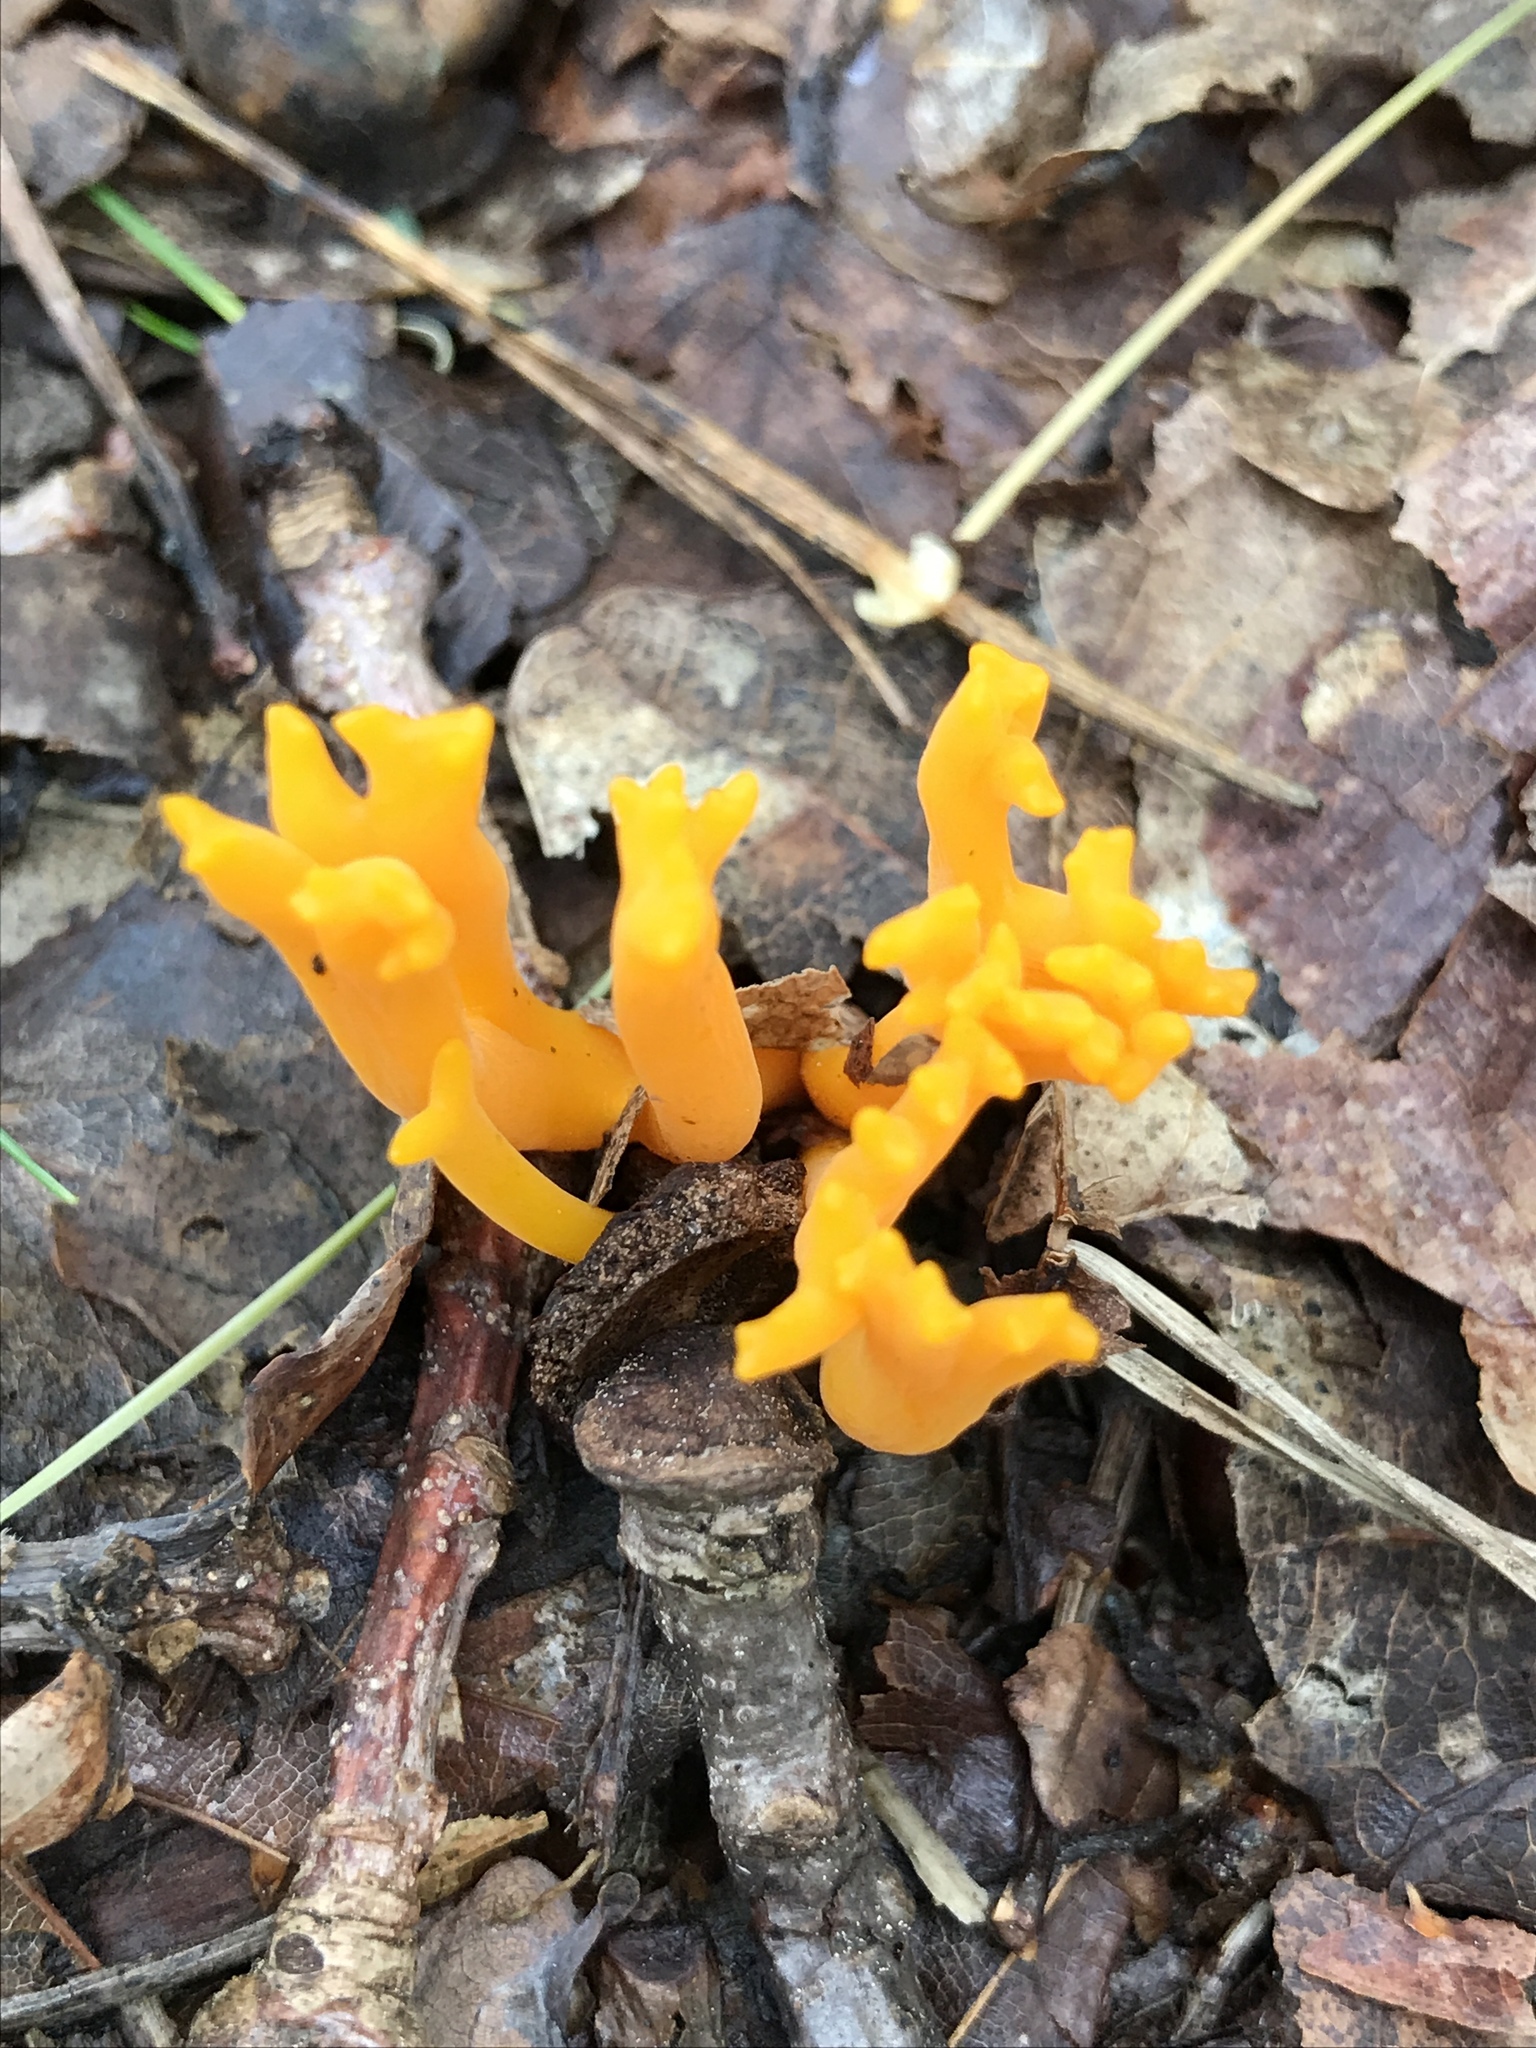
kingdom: Fungi
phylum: Basidiomycota
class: Dacrymycetes
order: Dacrymycetales
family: Dacrymycetaceae
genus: Calocera
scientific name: Calocera viscosa
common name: Yellow stagshorn
